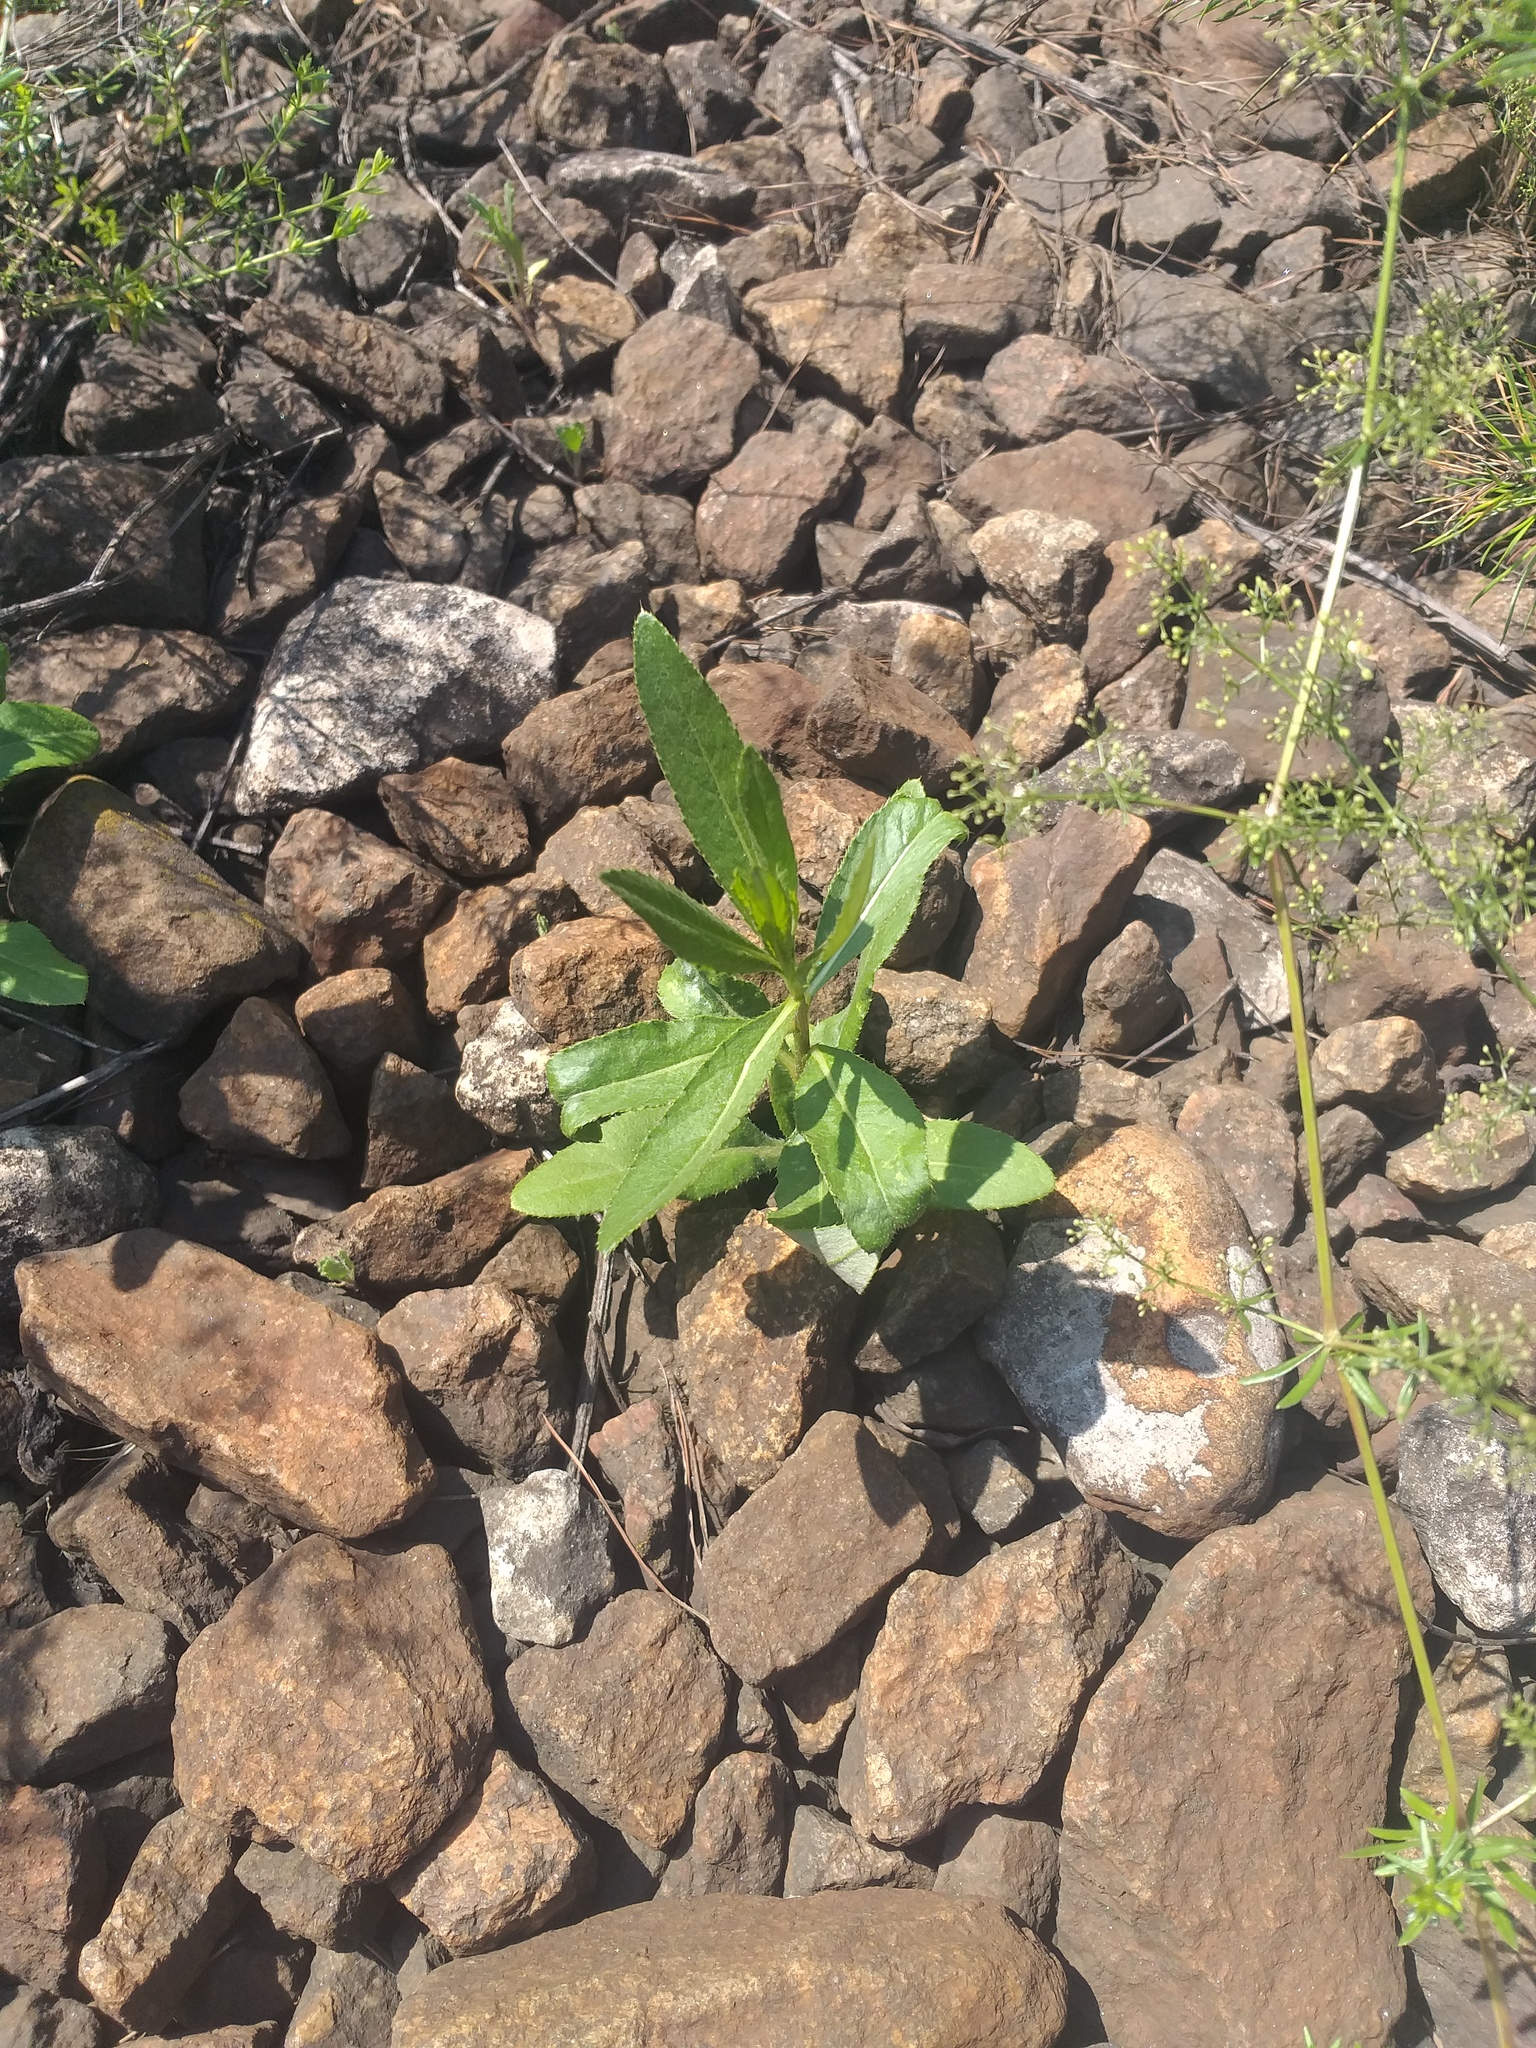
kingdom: Plantae
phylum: Tracheophyta
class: Magnoliopsida
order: Asterales
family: Asteraceae
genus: Cirsium
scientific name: Cirsium arvense
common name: Creeping thistle
